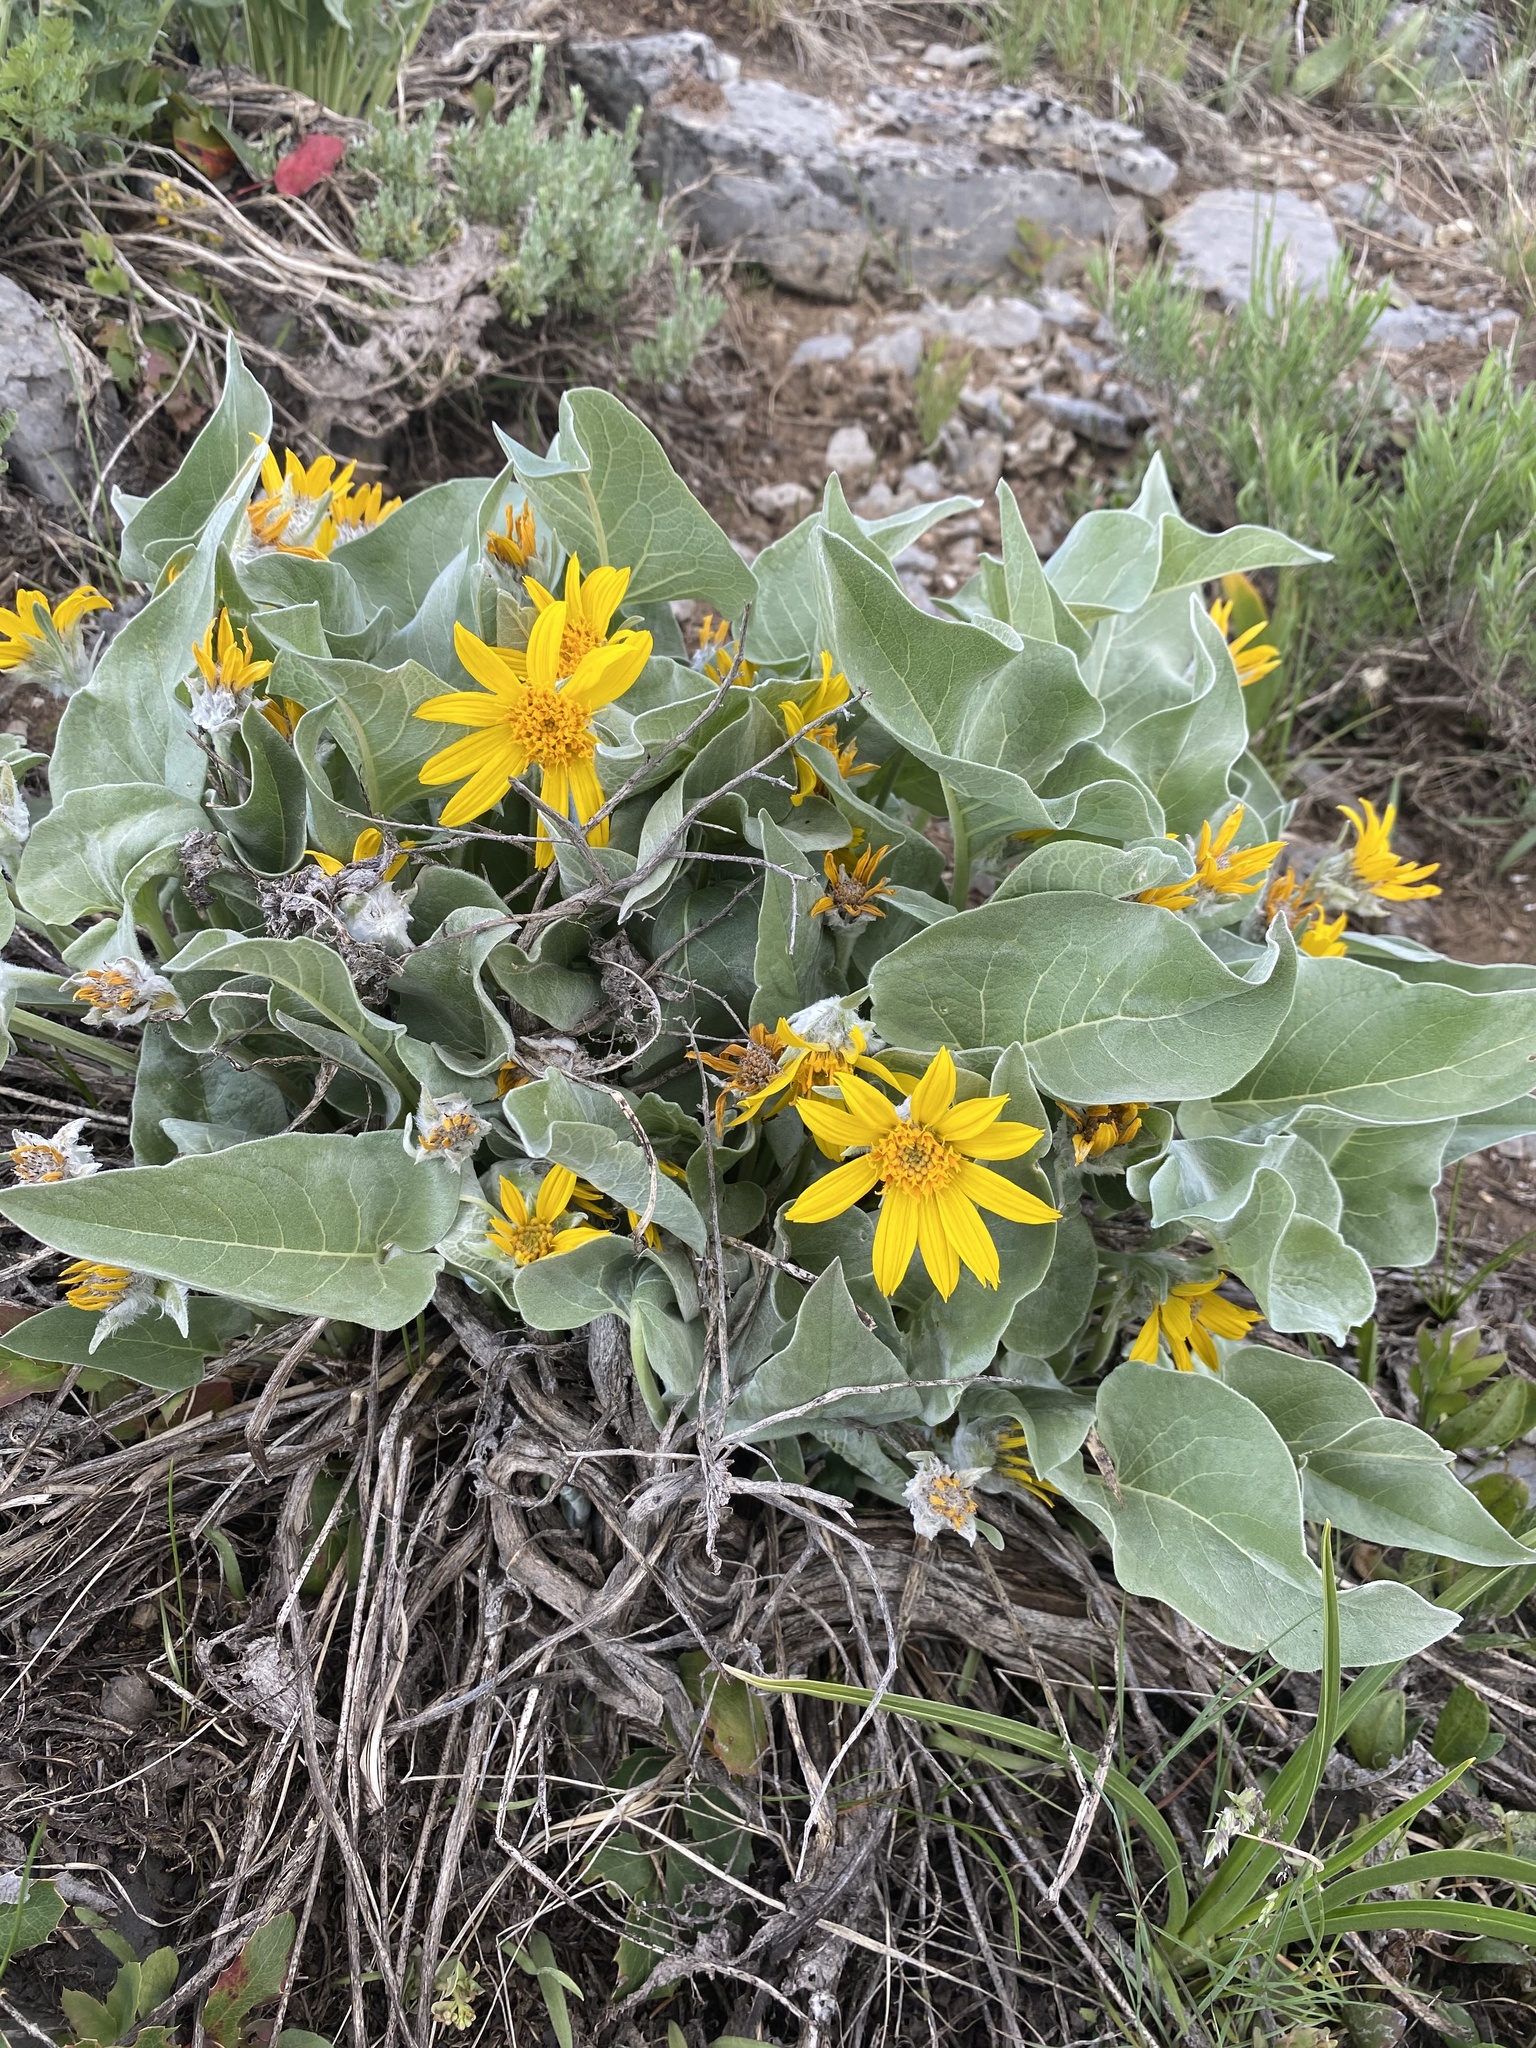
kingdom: Plantae
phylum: Tracheophyta
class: Magnoliopsida
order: Asterales
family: Asteraceae
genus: Wyethia
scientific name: Wyethia sagittata
